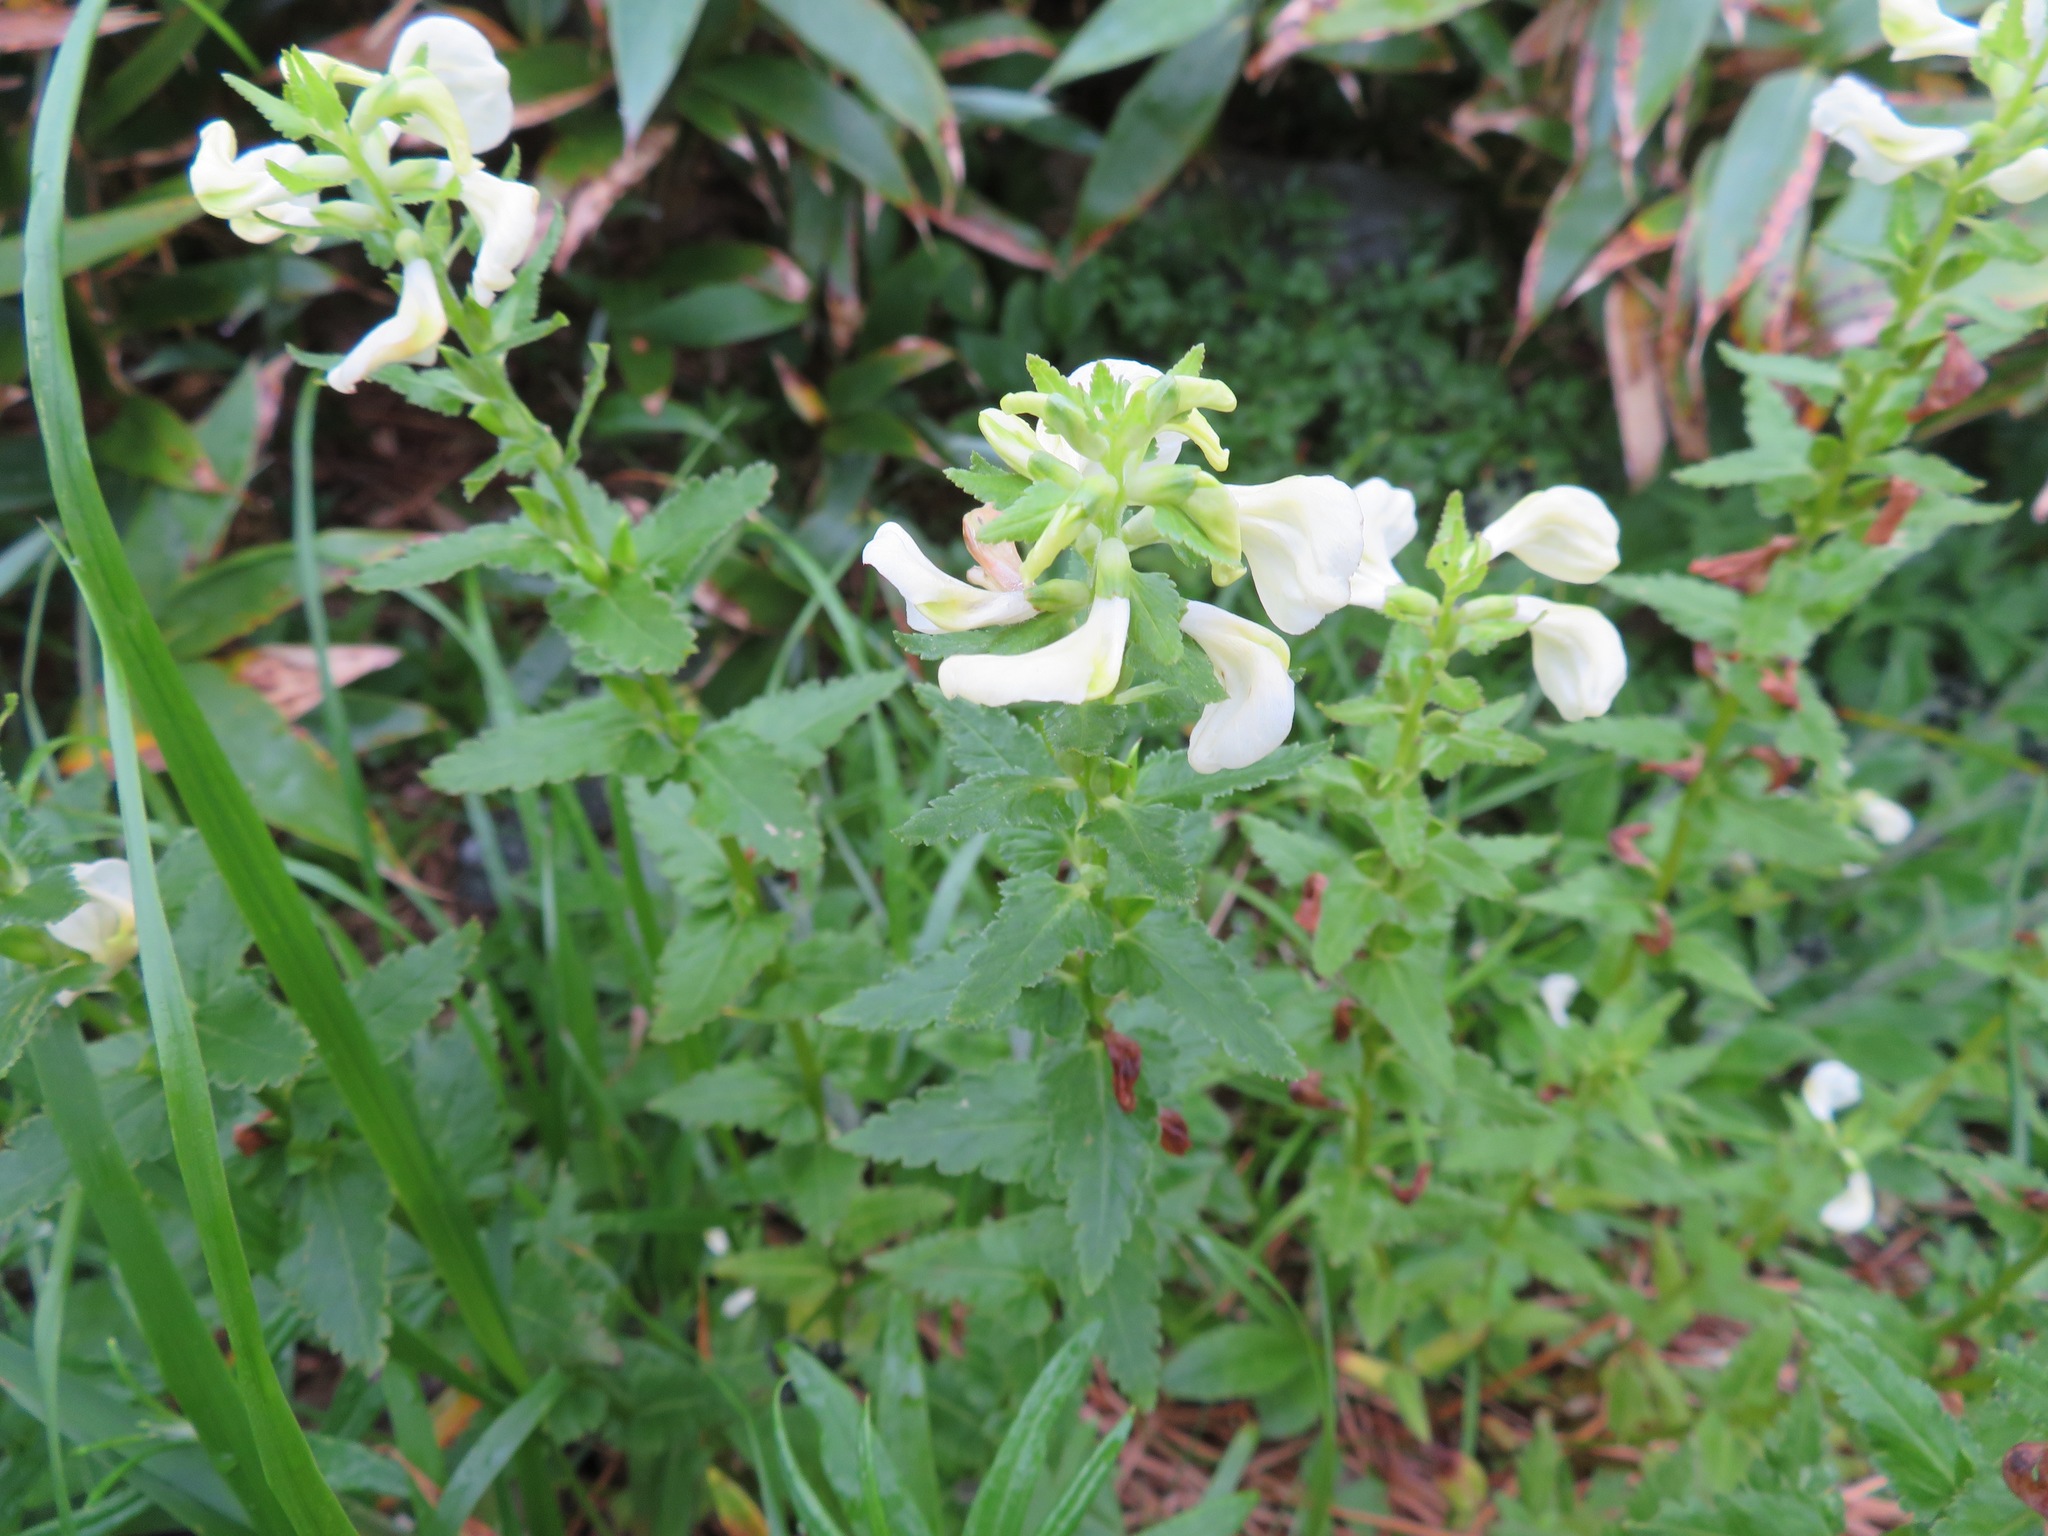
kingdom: Plantae
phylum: Tracheophyta
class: Magnoliopsida
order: Lamiales
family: Orobanchaceae
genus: Pedicularis
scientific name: Pedicularis yezoensis
